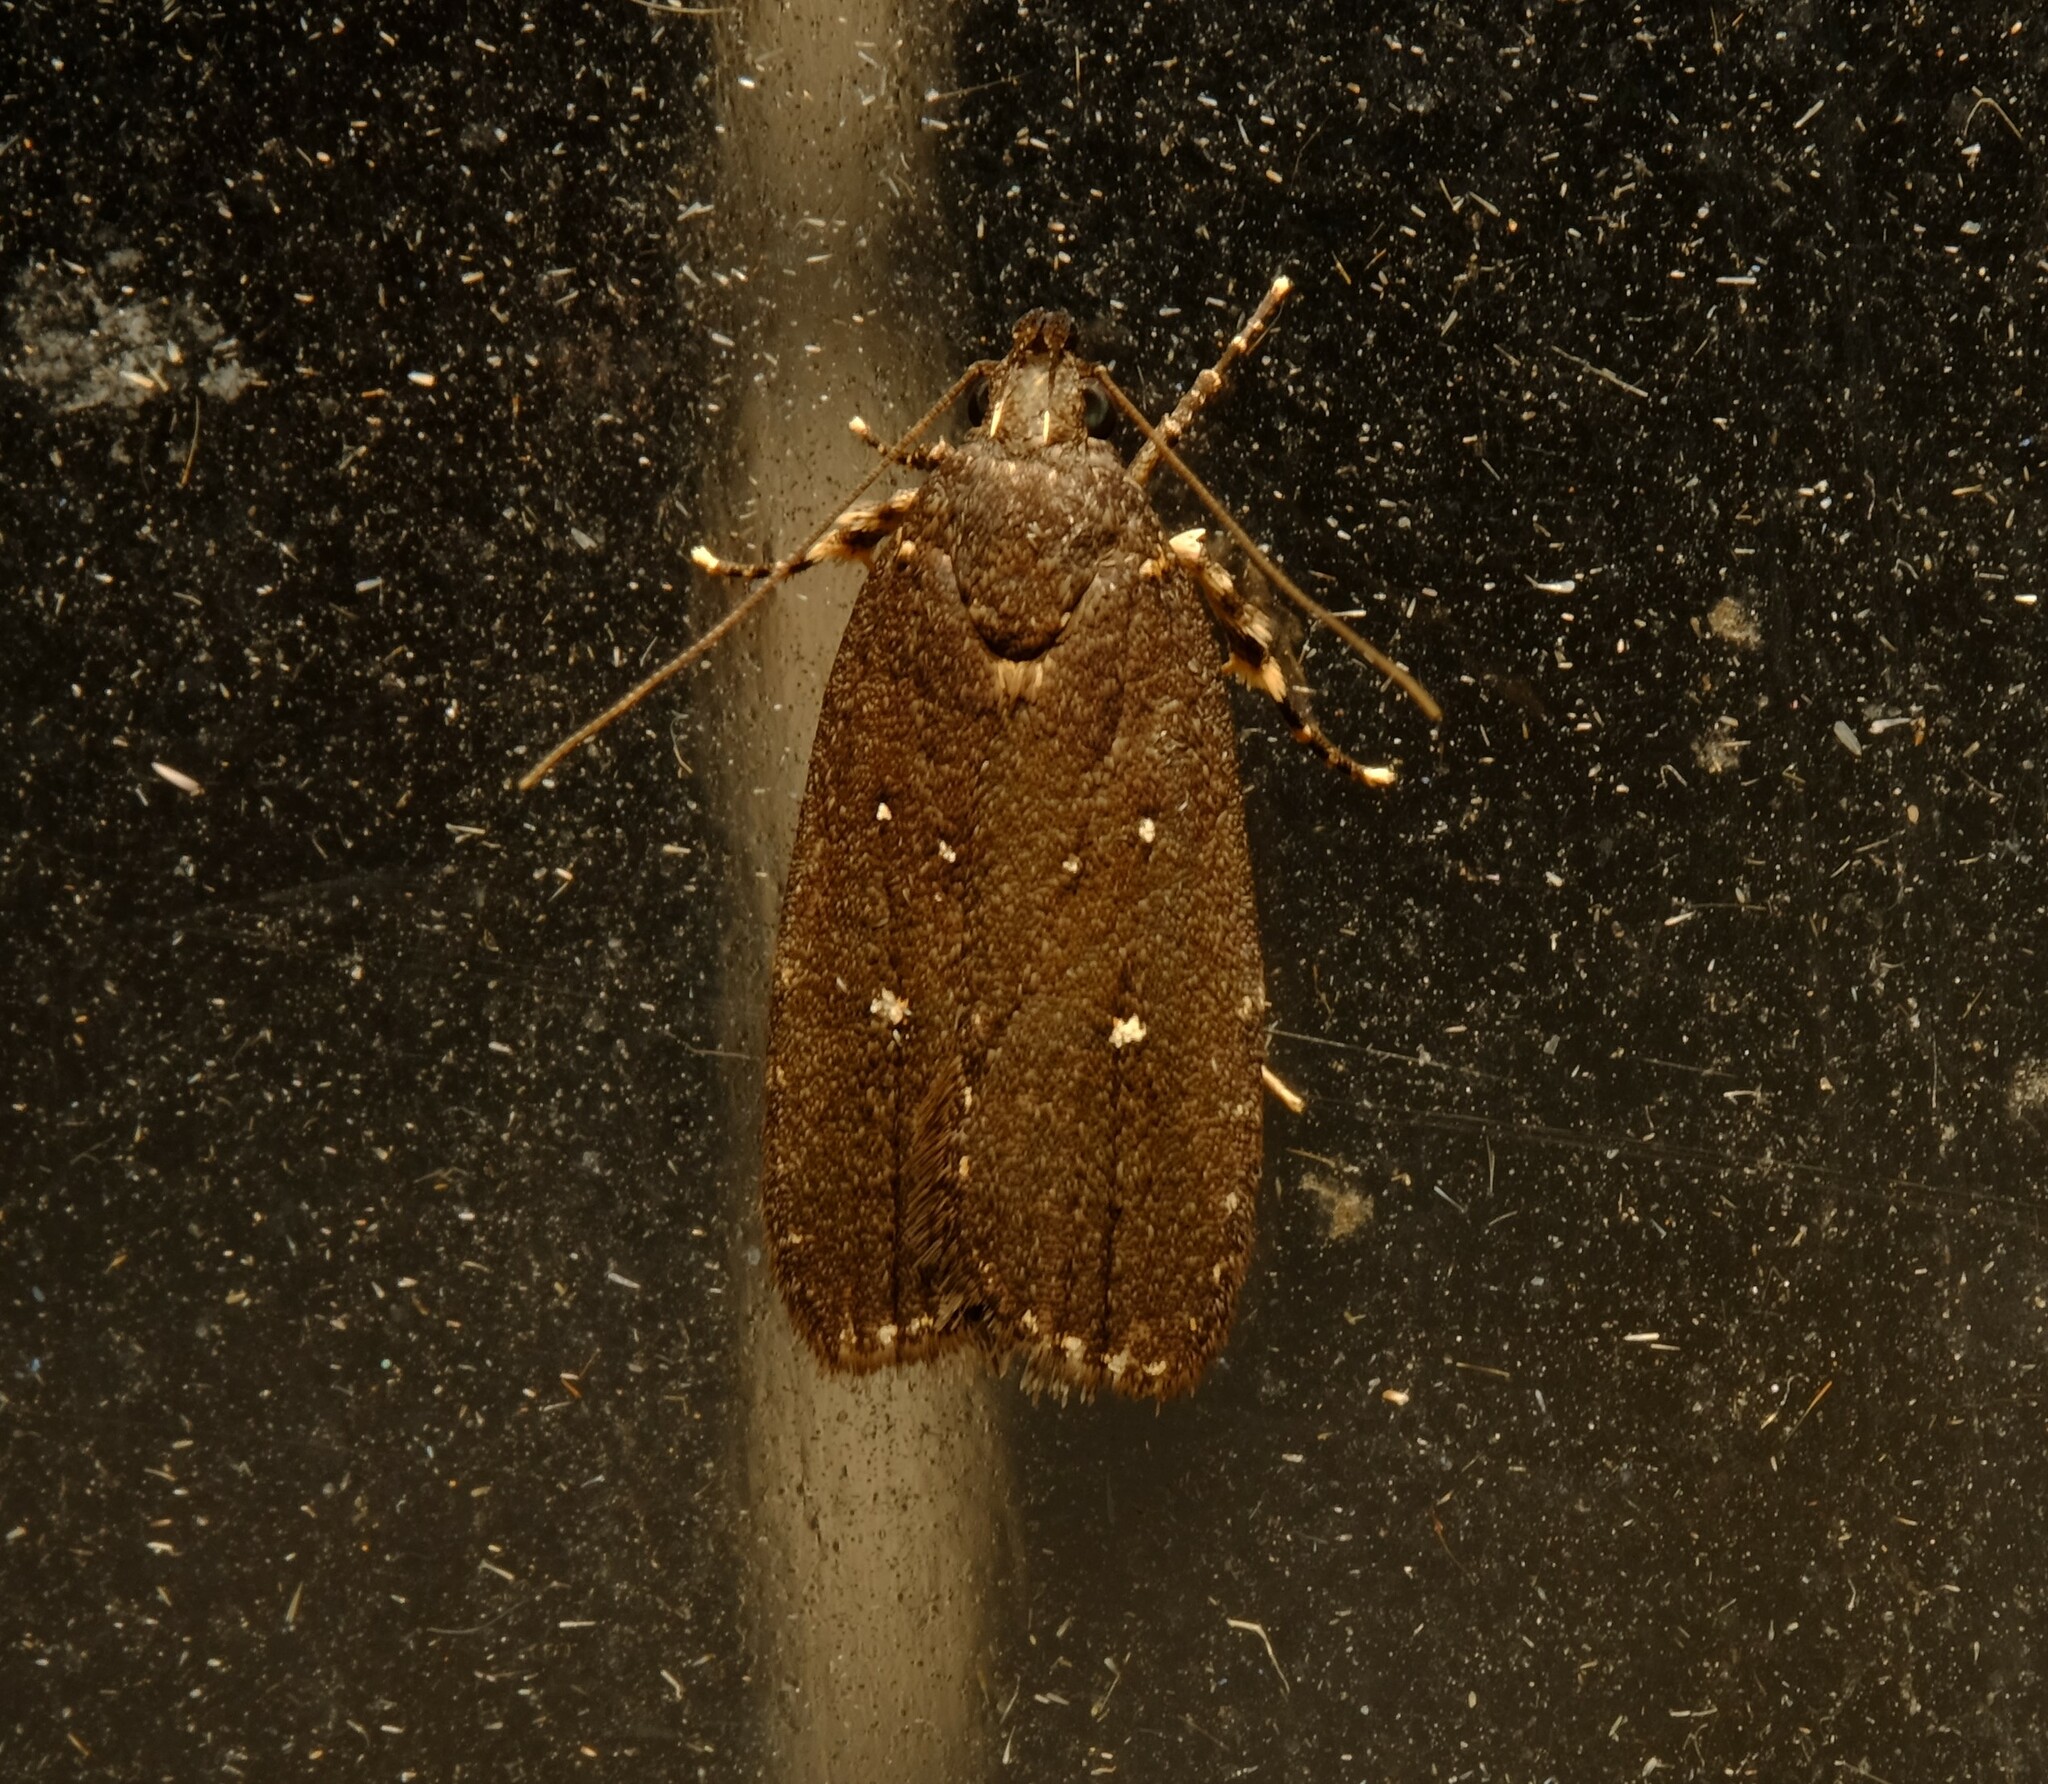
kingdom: Animalia
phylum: Arthropoda
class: Insecta
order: Lepidoptera
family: Gelechiidae
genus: Ardozyga
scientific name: Ardozyga nyctias
